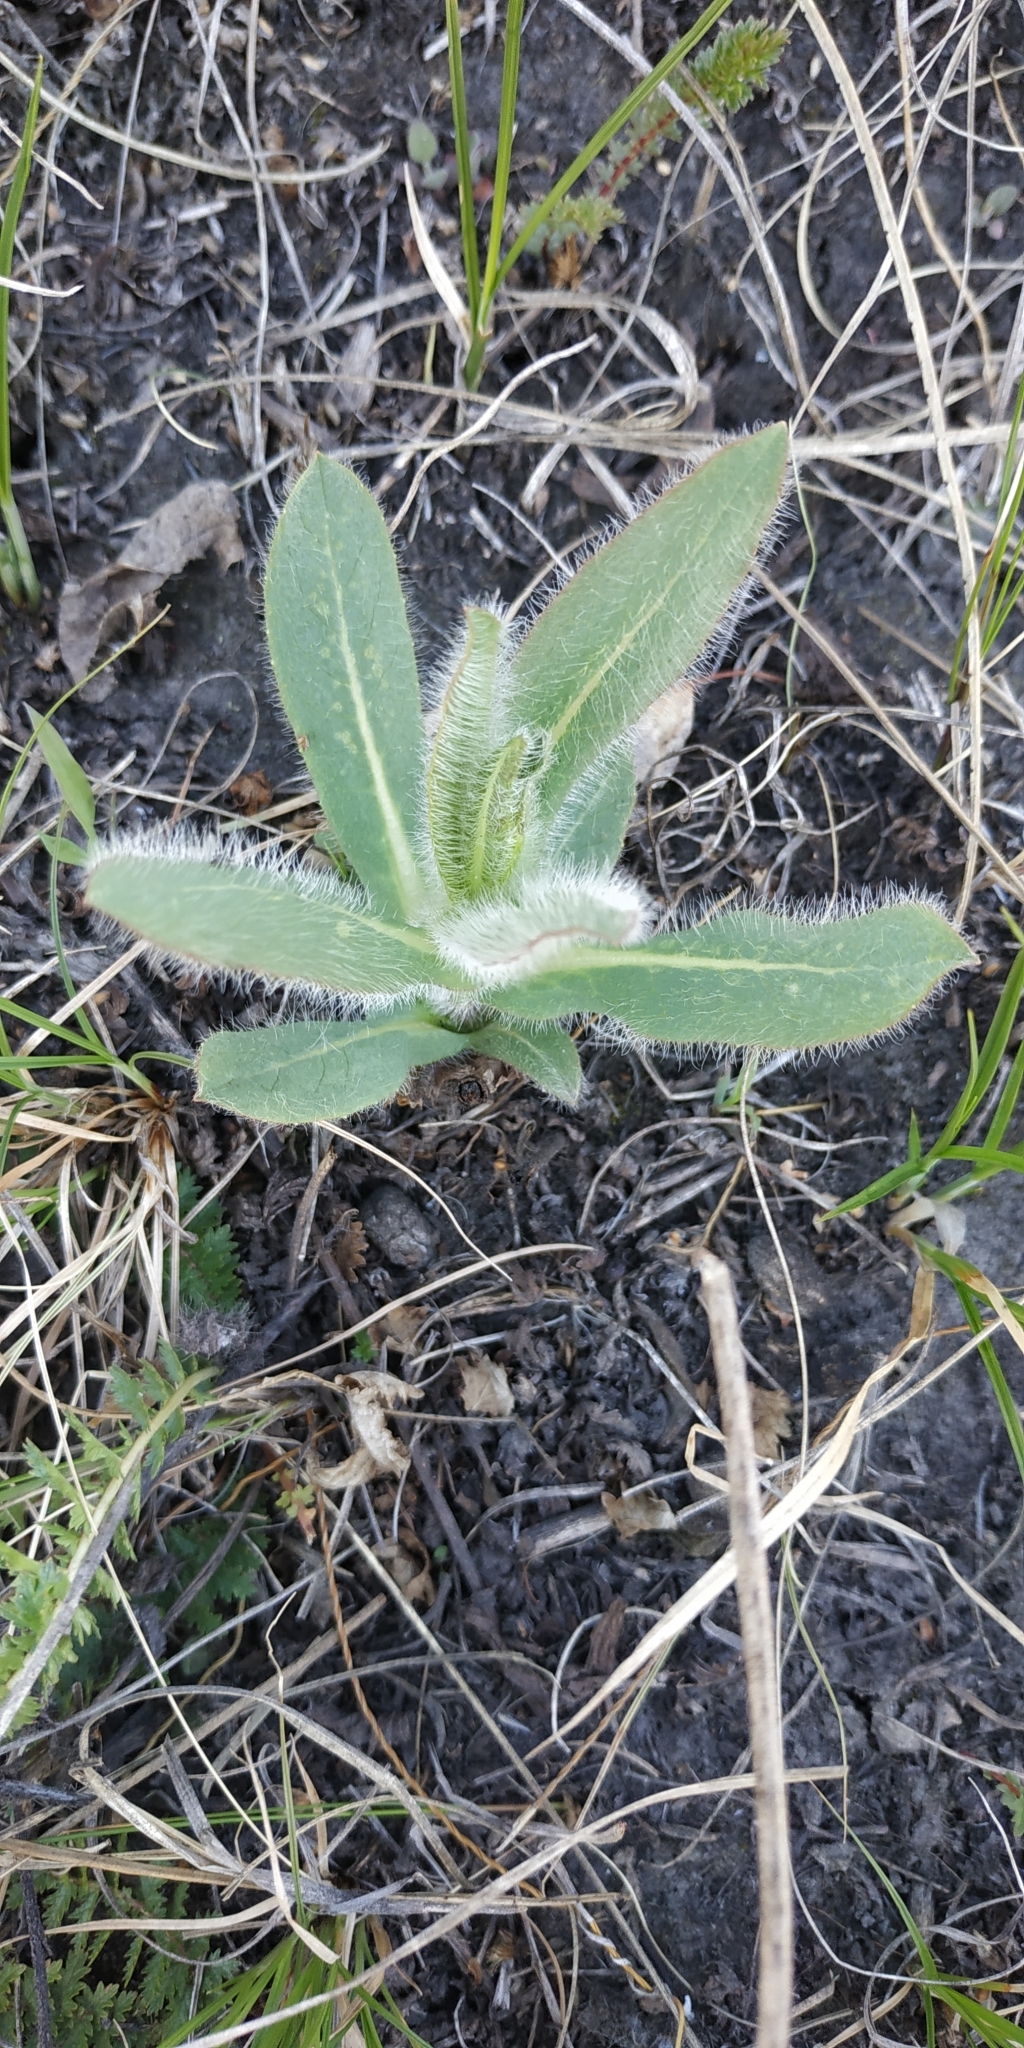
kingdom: Plantae
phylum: Tracheophyta
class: Magnoliopsida
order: Asterales
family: Asteraceae
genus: Hieracium
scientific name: Hieracium robustum
